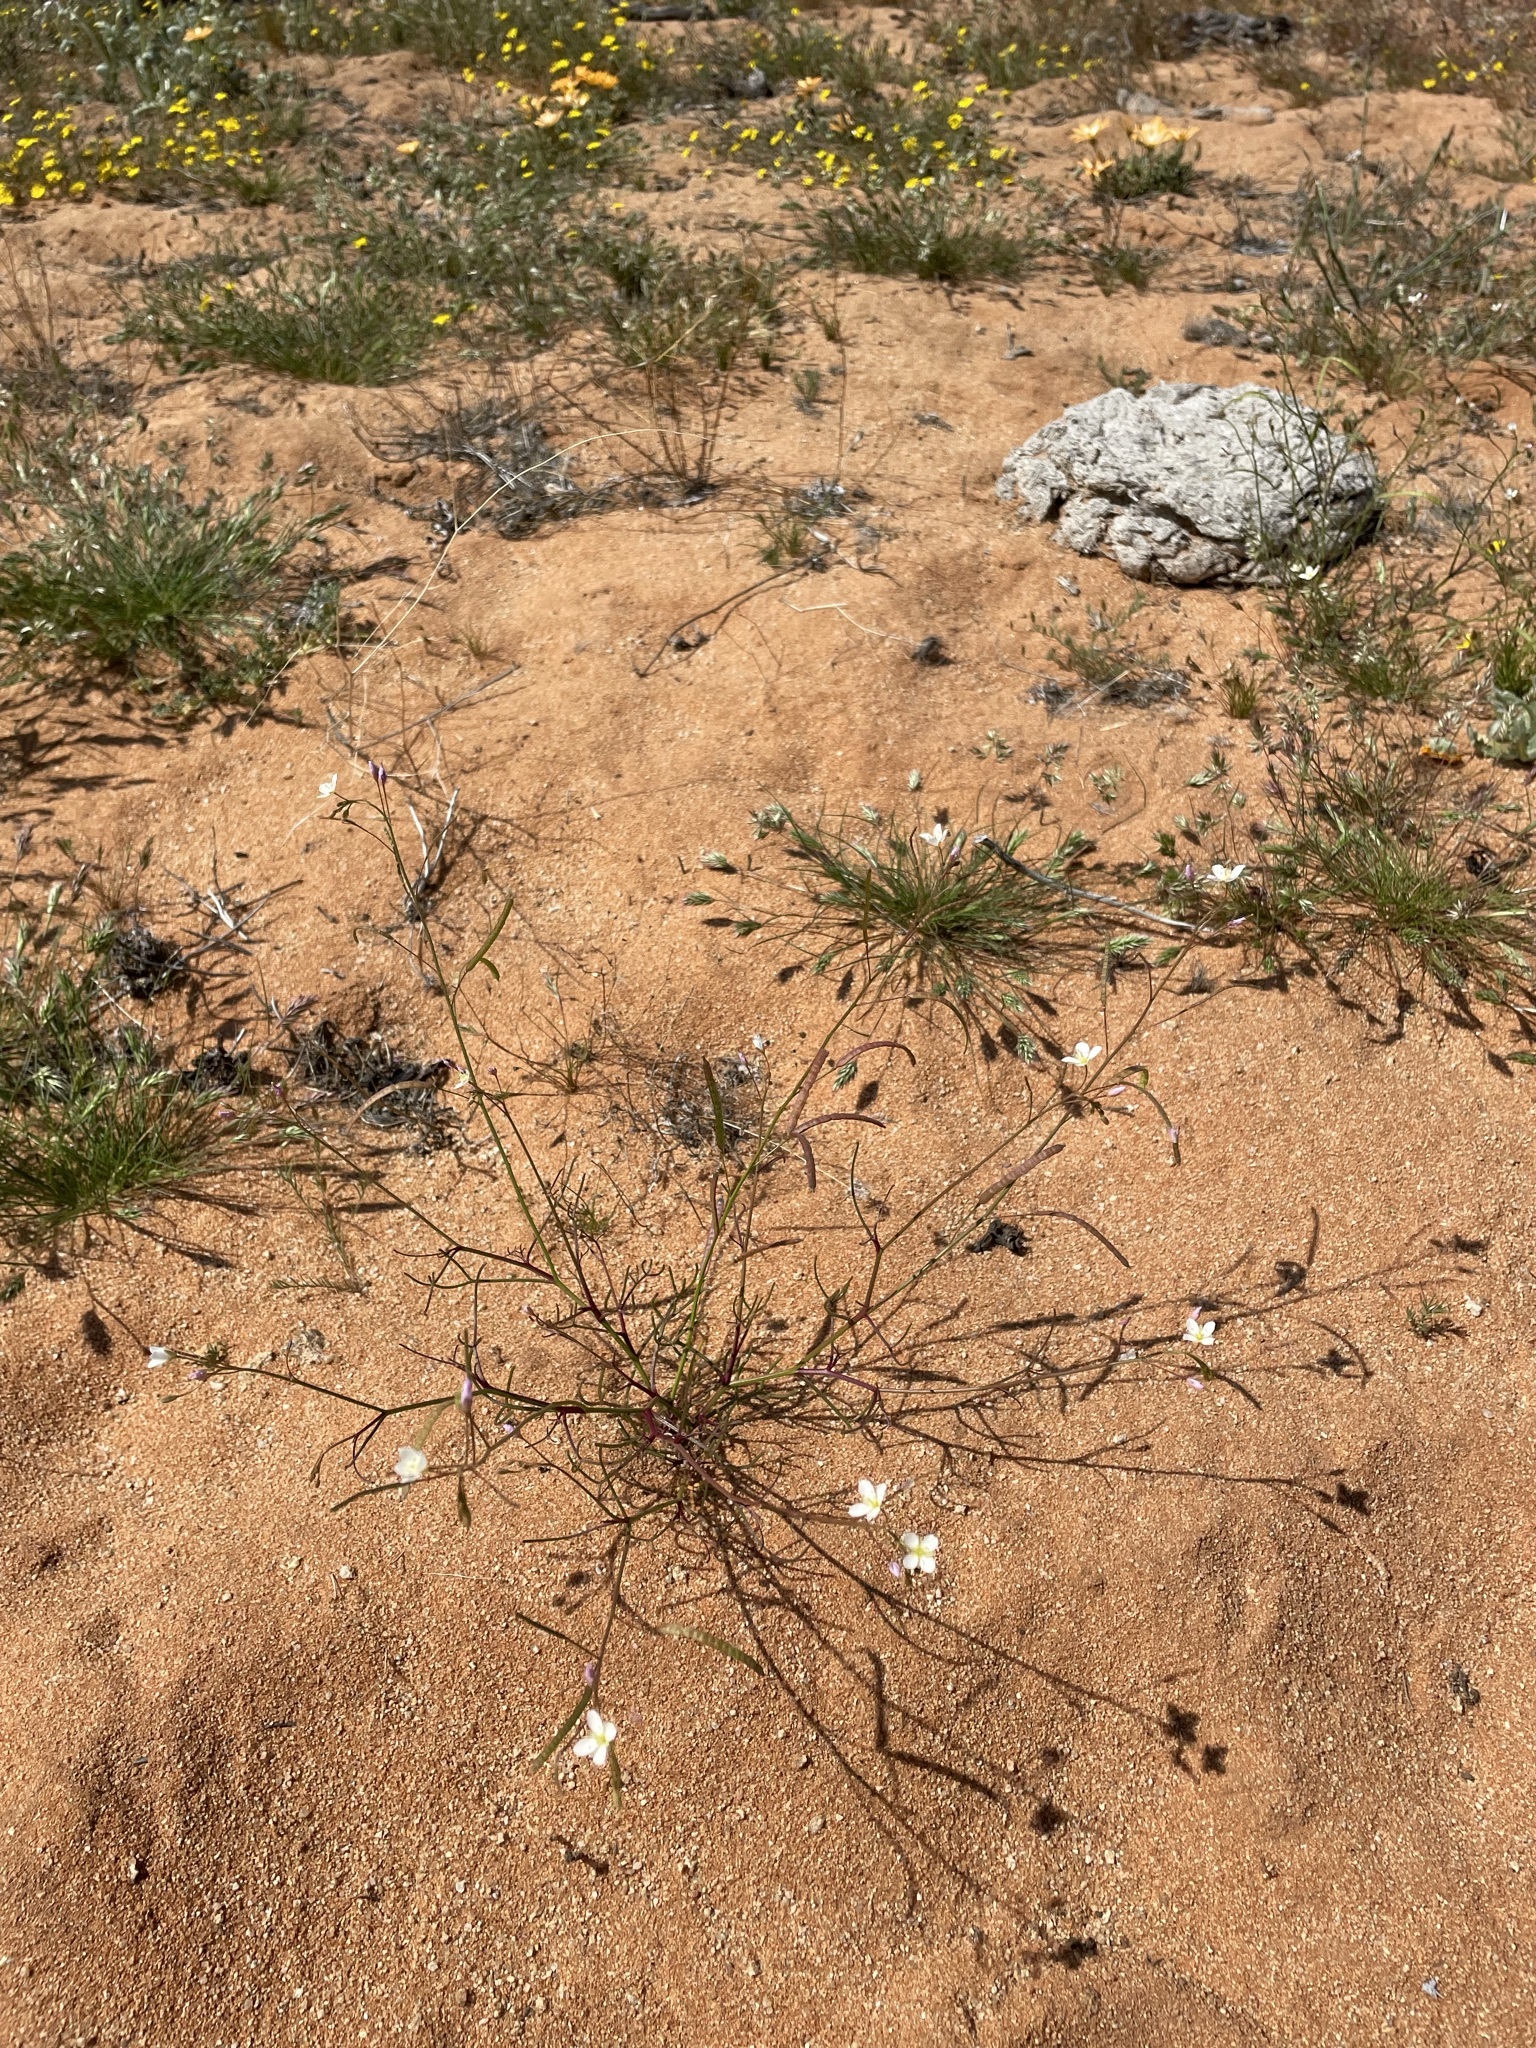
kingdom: Plantae
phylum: Tracheophyta
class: Magnoliopsida
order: Brassicales
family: Brassicaceae
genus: Heliophila
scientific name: Heliophila variabilis
